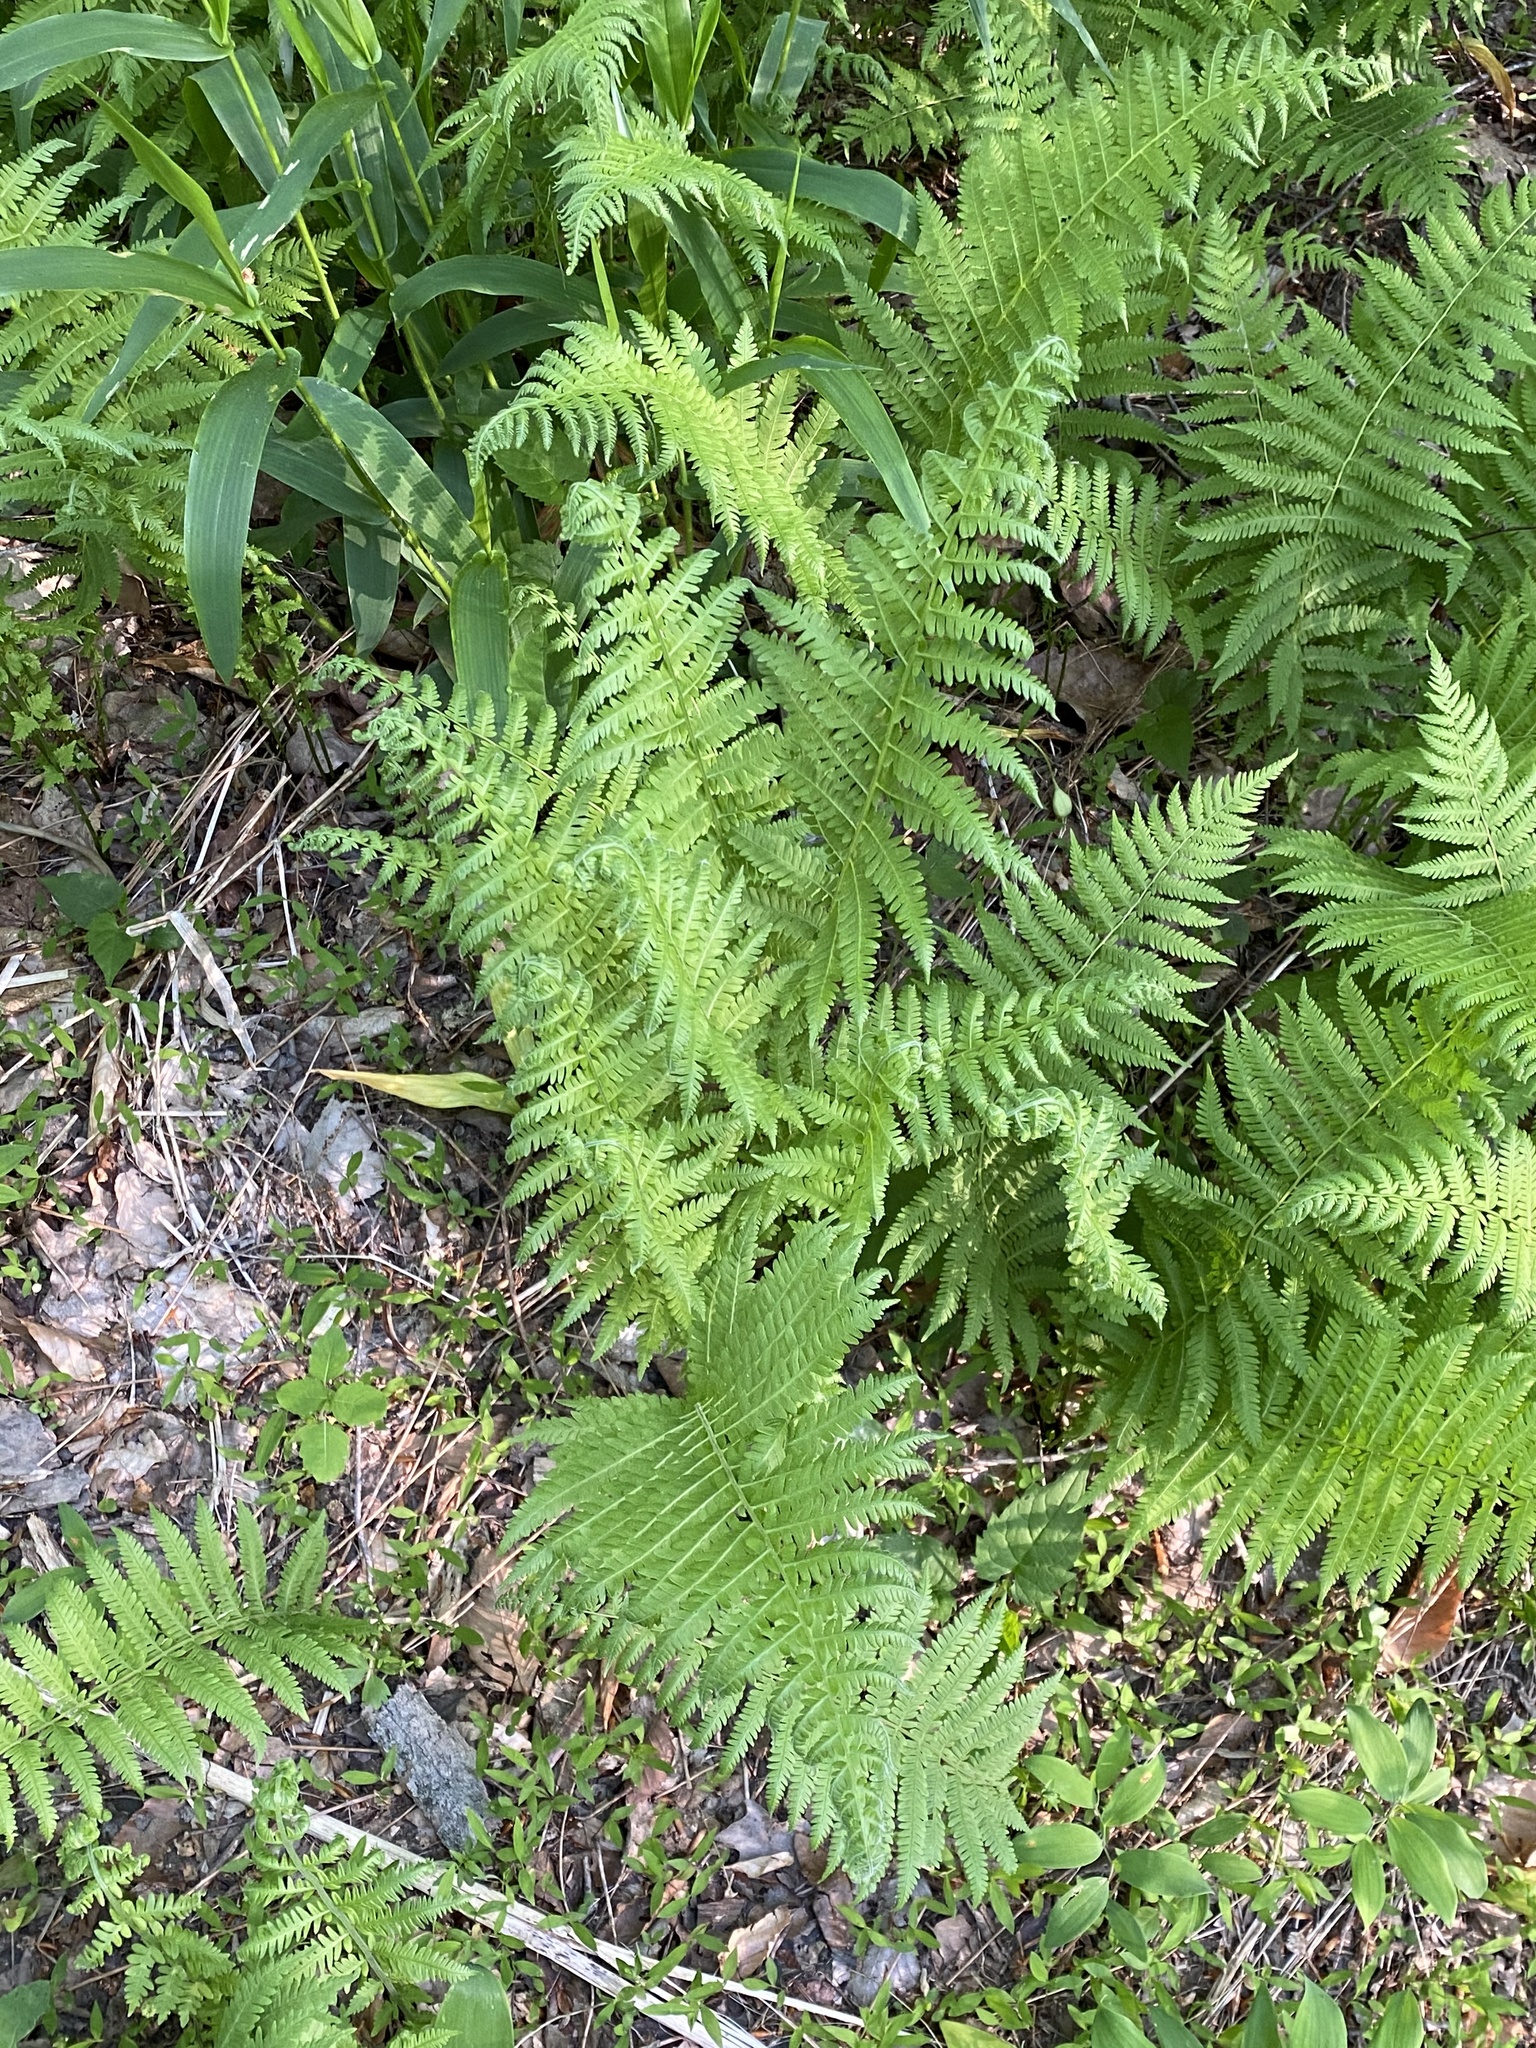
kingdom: Plantae
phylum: Tracheophyta
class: Polypodiopsida
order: Polypodiales
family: Thelypteridaceae
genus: Amauropelta
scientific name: Amauropelta noveboracensis
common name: New york fern
